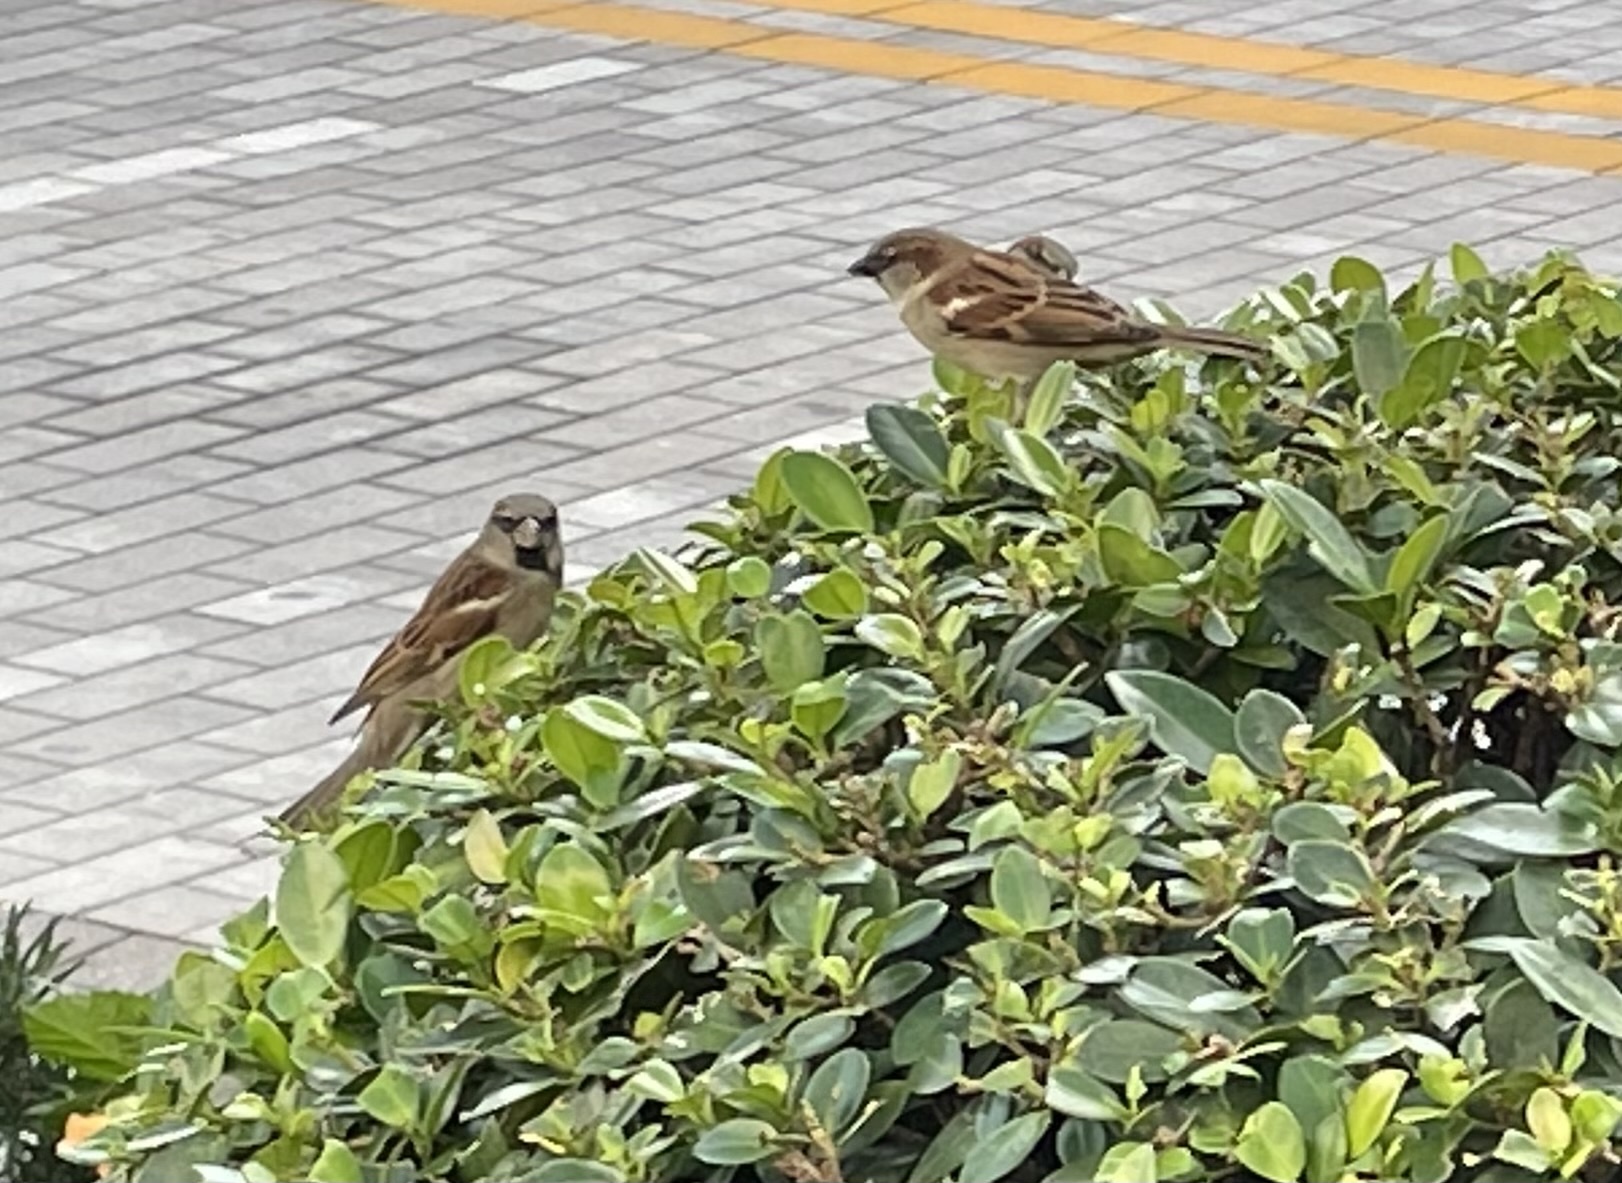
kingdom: Animalia
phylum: Chordata
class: Aves
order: Passeriformes
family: Passeridae
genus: Passer
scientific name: Passer domesticus
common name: House sparrow
